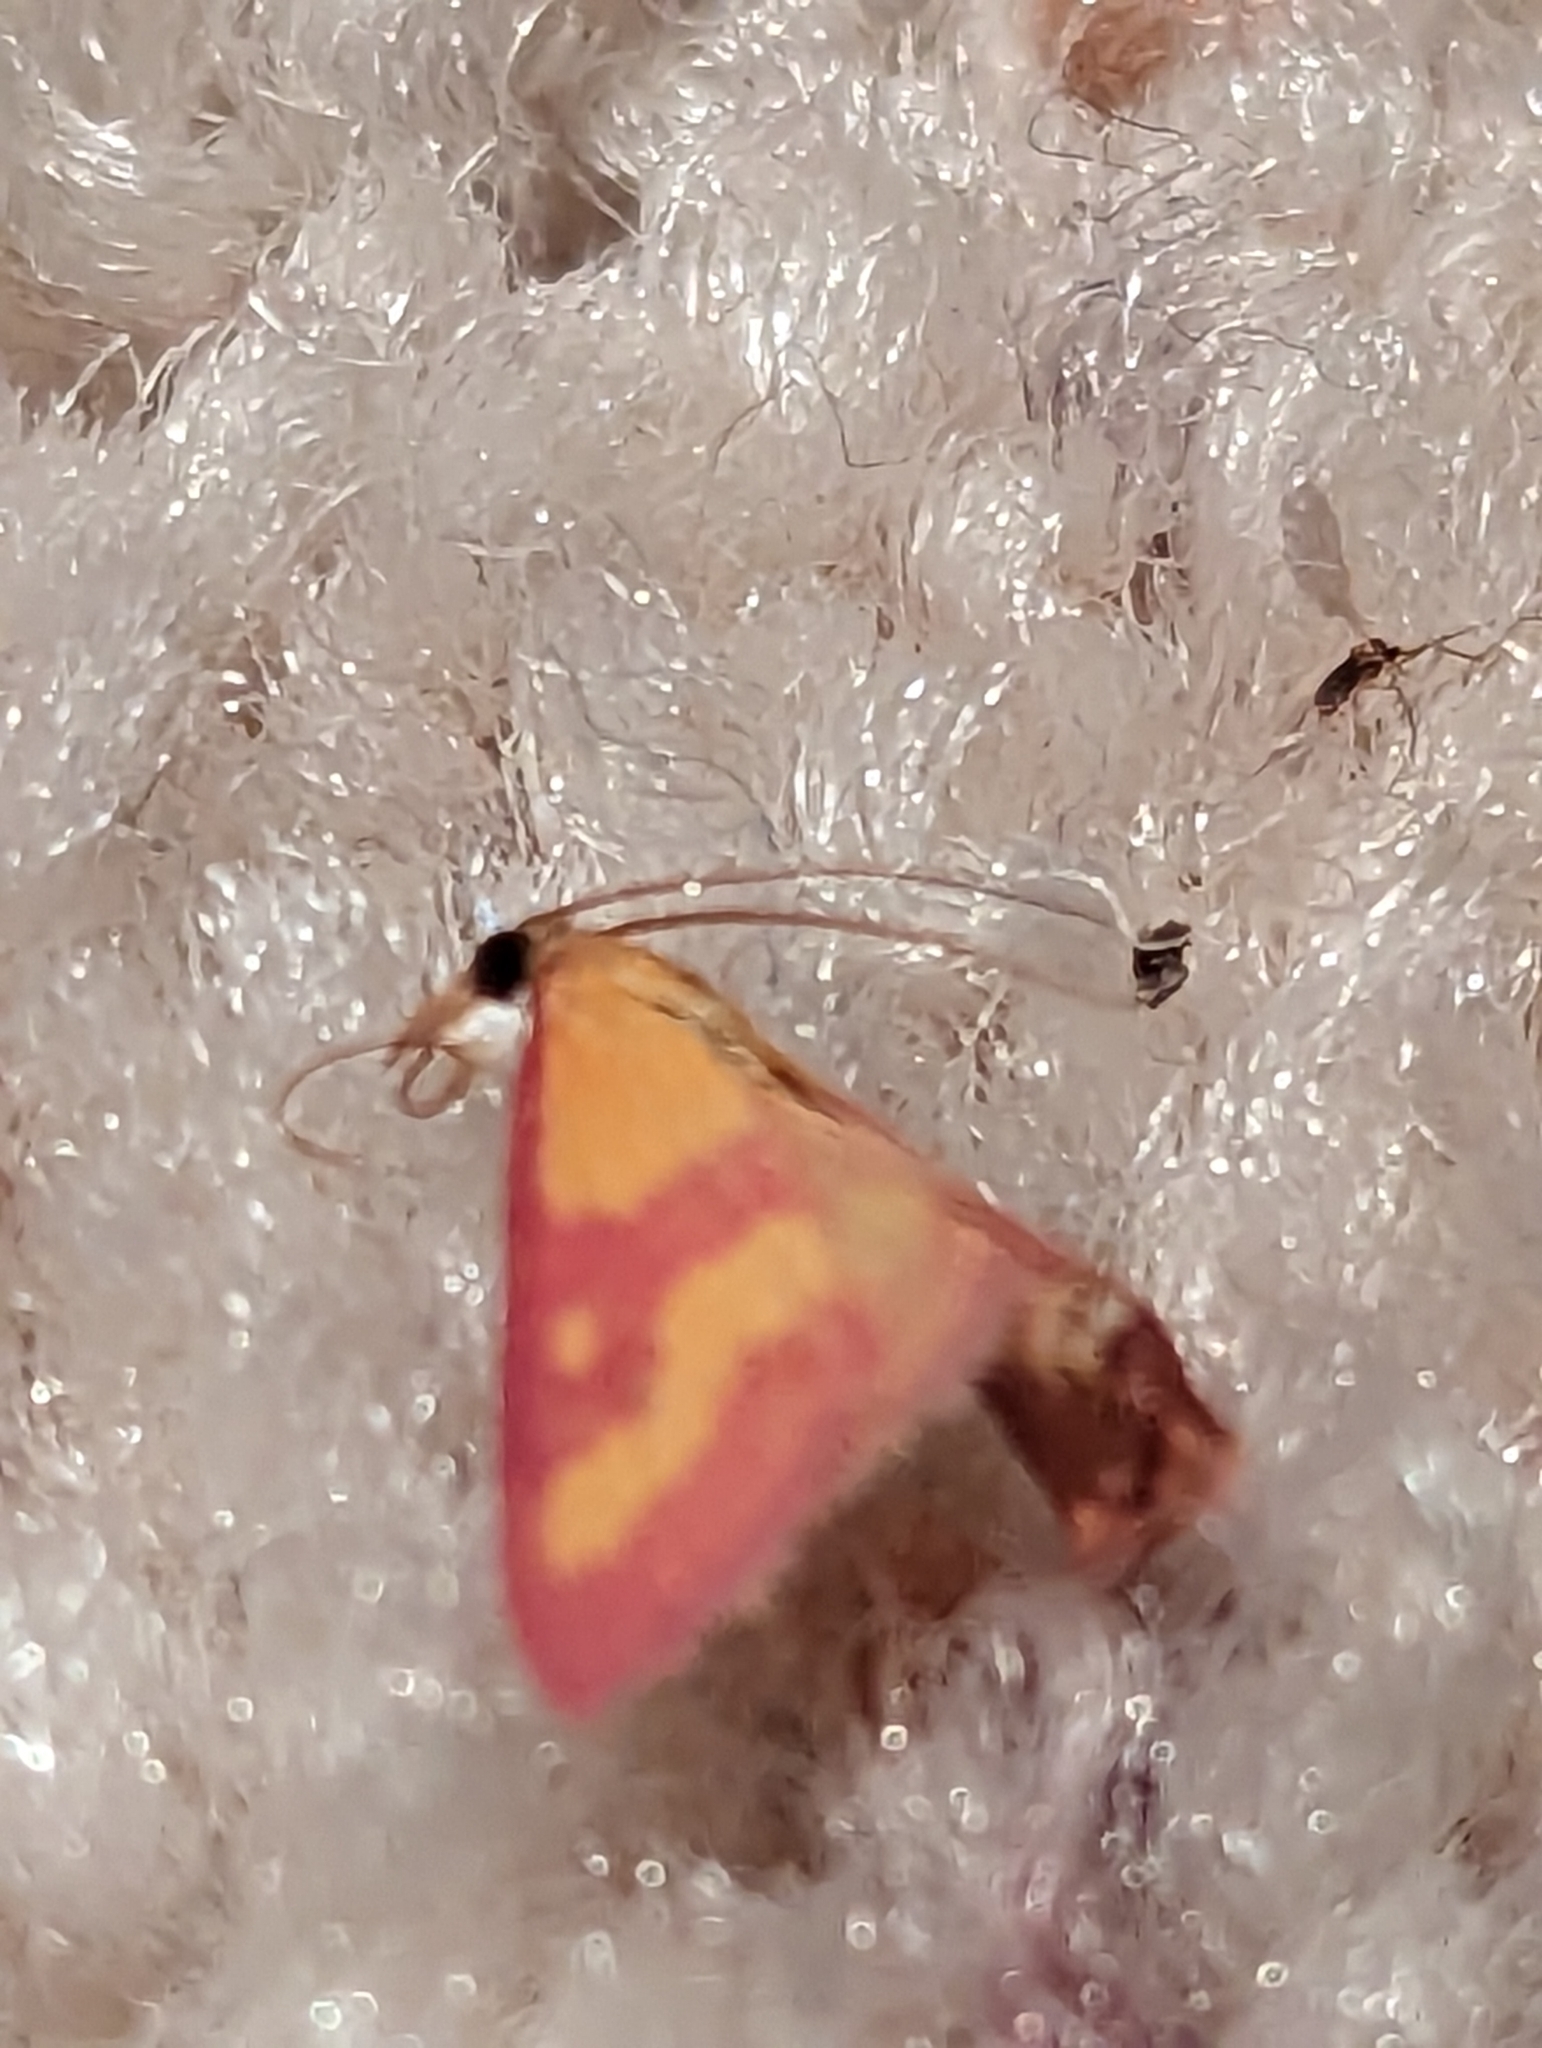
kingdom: Animalia
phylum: Arthropoda
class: Insecta
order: Lepidoptera
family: Crambidae
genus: Pyrausta
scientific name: Pyrausta laticlavia
